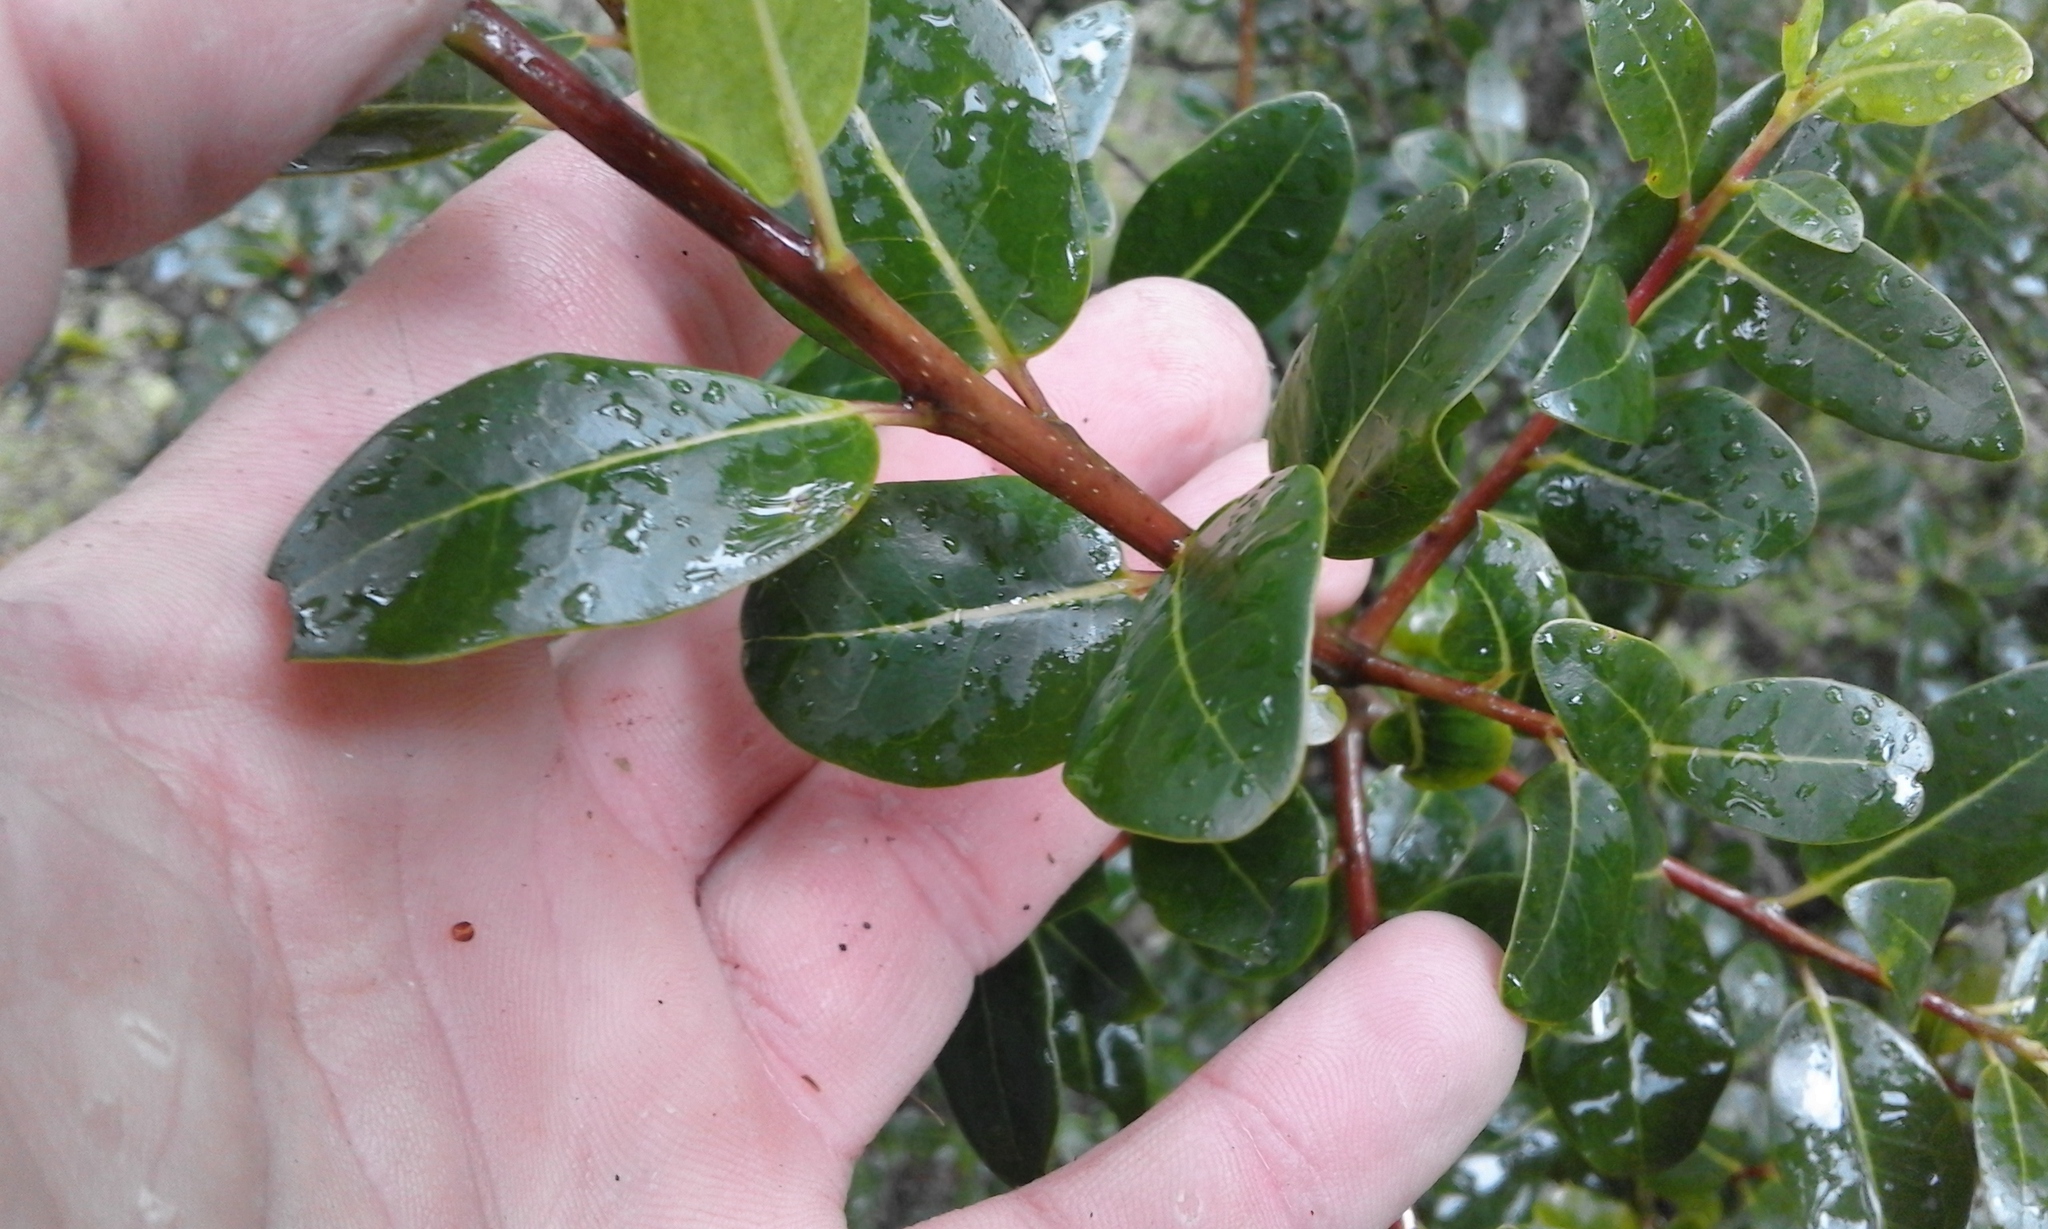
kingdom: Plantae
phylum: Tracheophyta
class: Magnoliopsida
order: Metteniusales
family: Metteniusaceae
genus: Apodytes
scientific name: Apodytes dimidiata
